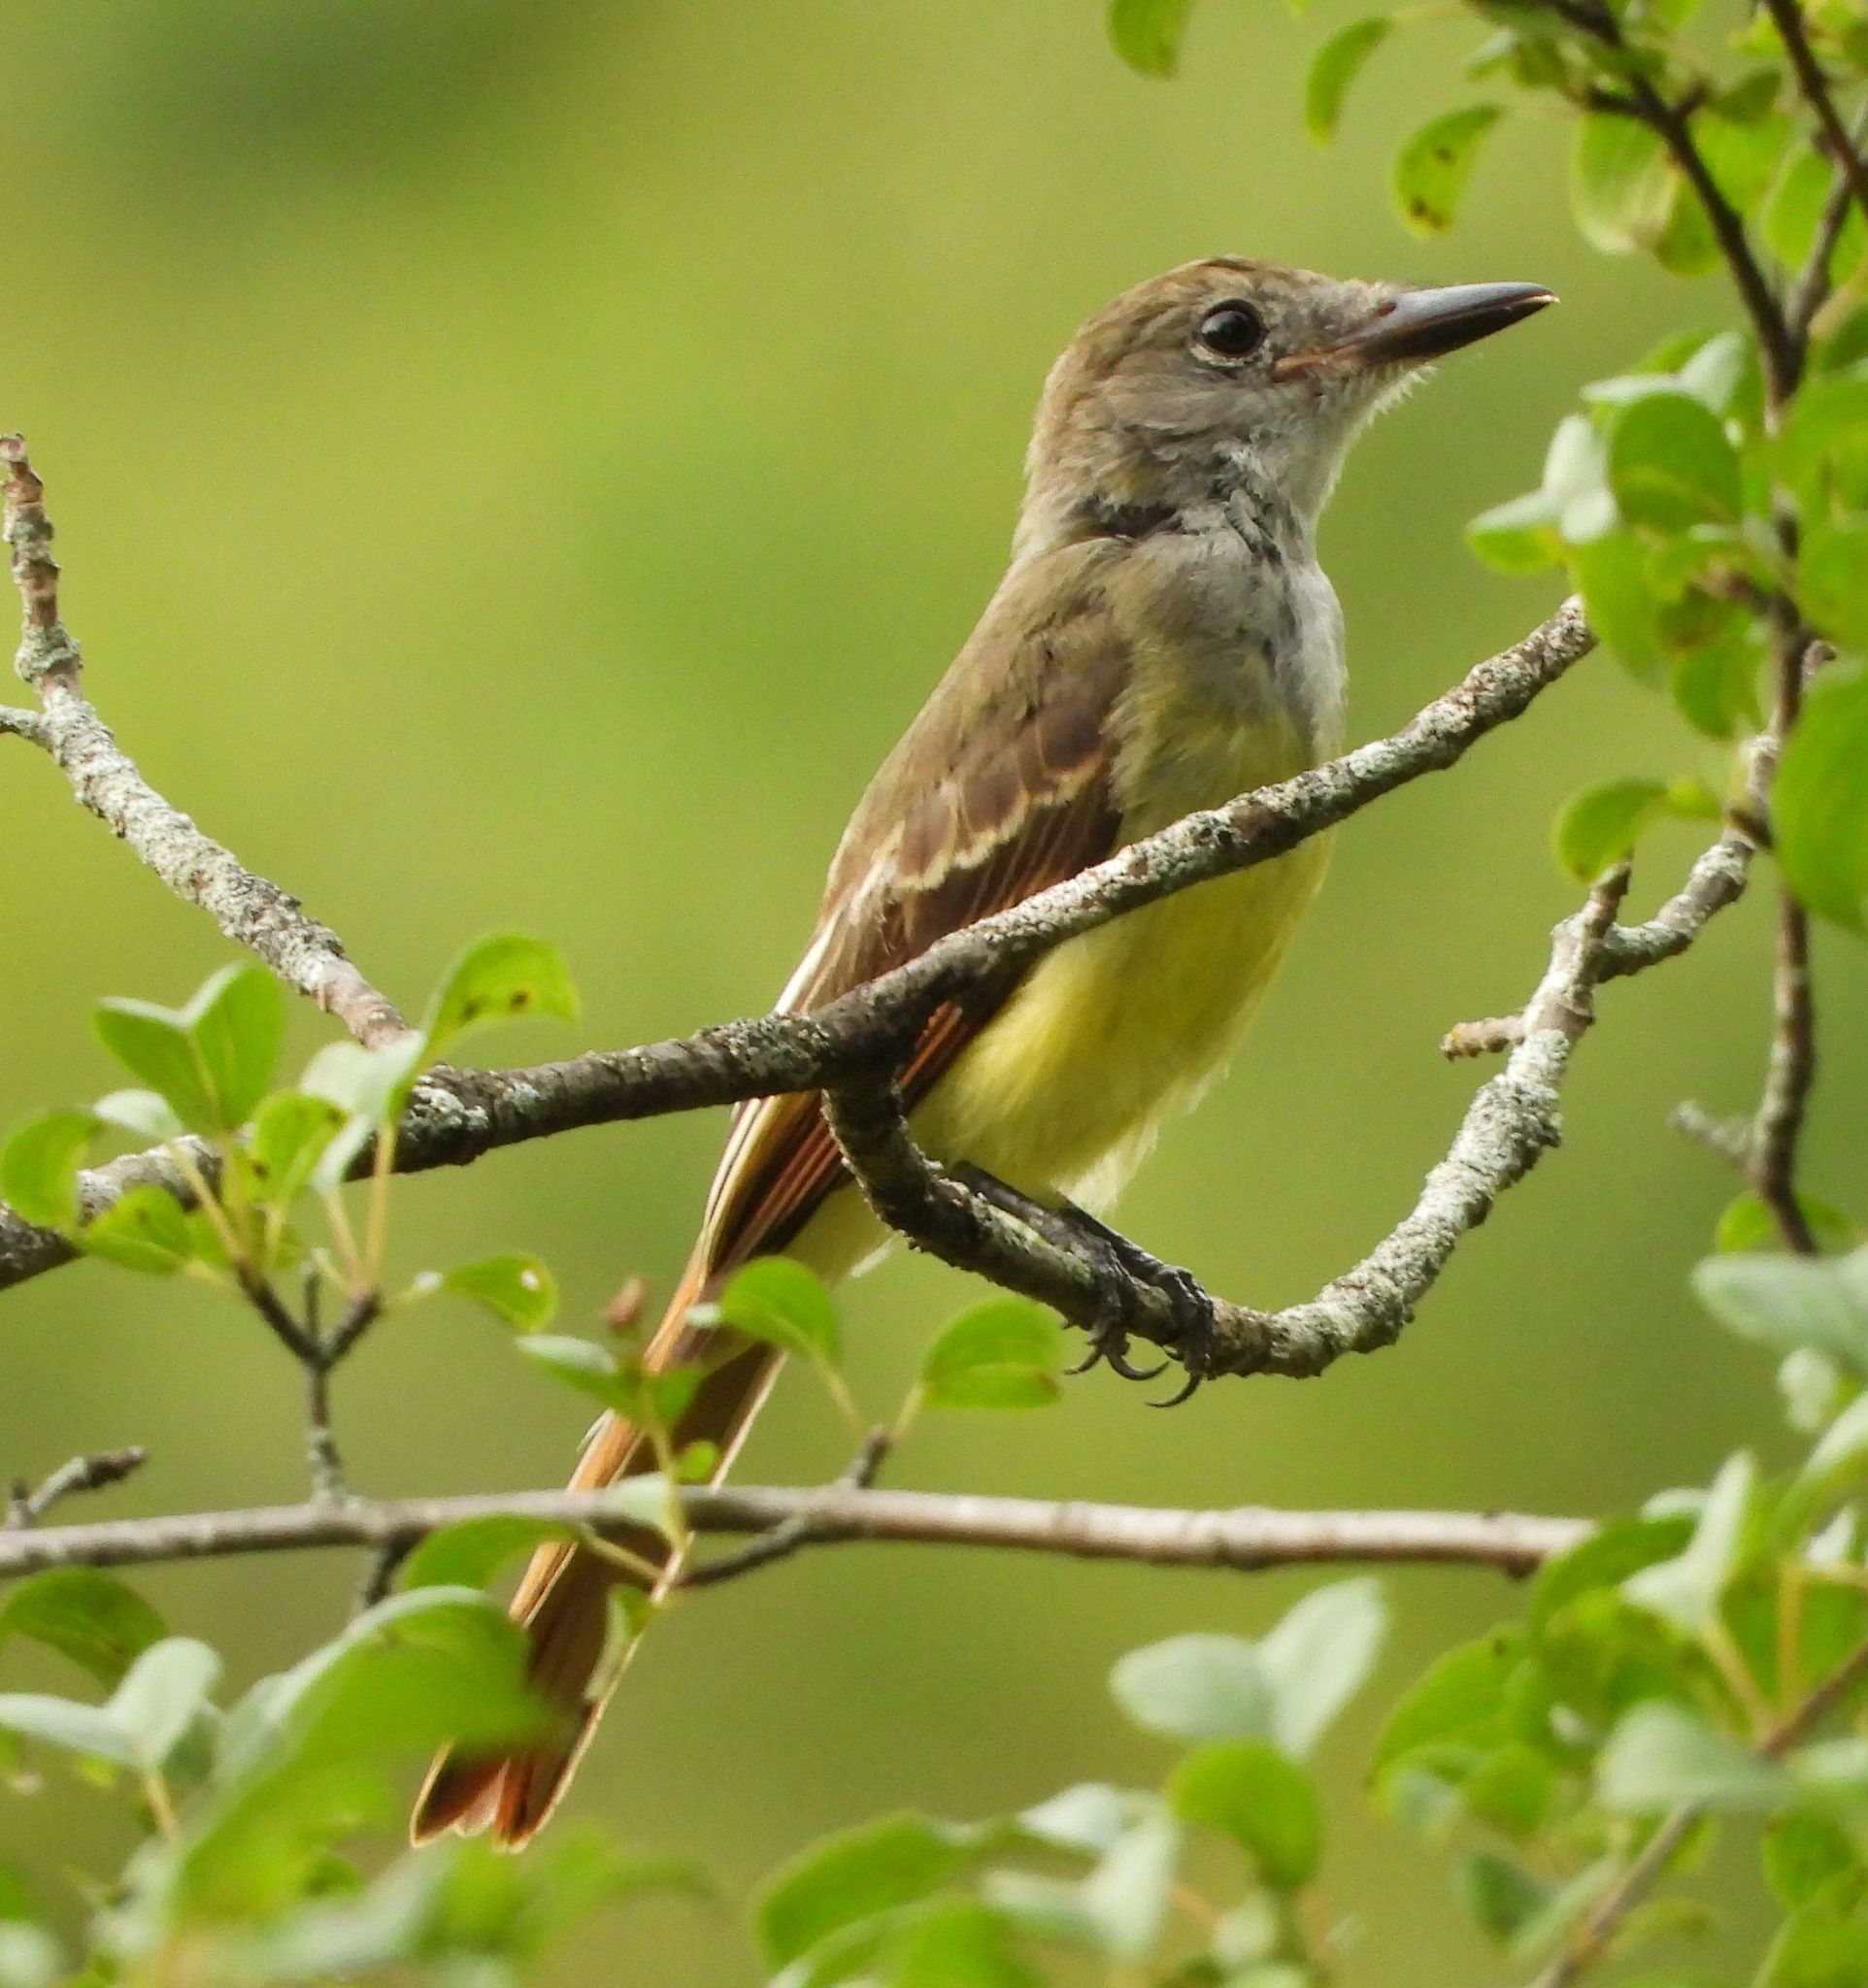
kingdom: Animalia
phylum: Chordata
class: Aves
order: Passeriformes
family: Tyrannidae
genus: Myiarchus
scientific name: Myiarchus crinitus
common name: Great crested flycatcher
